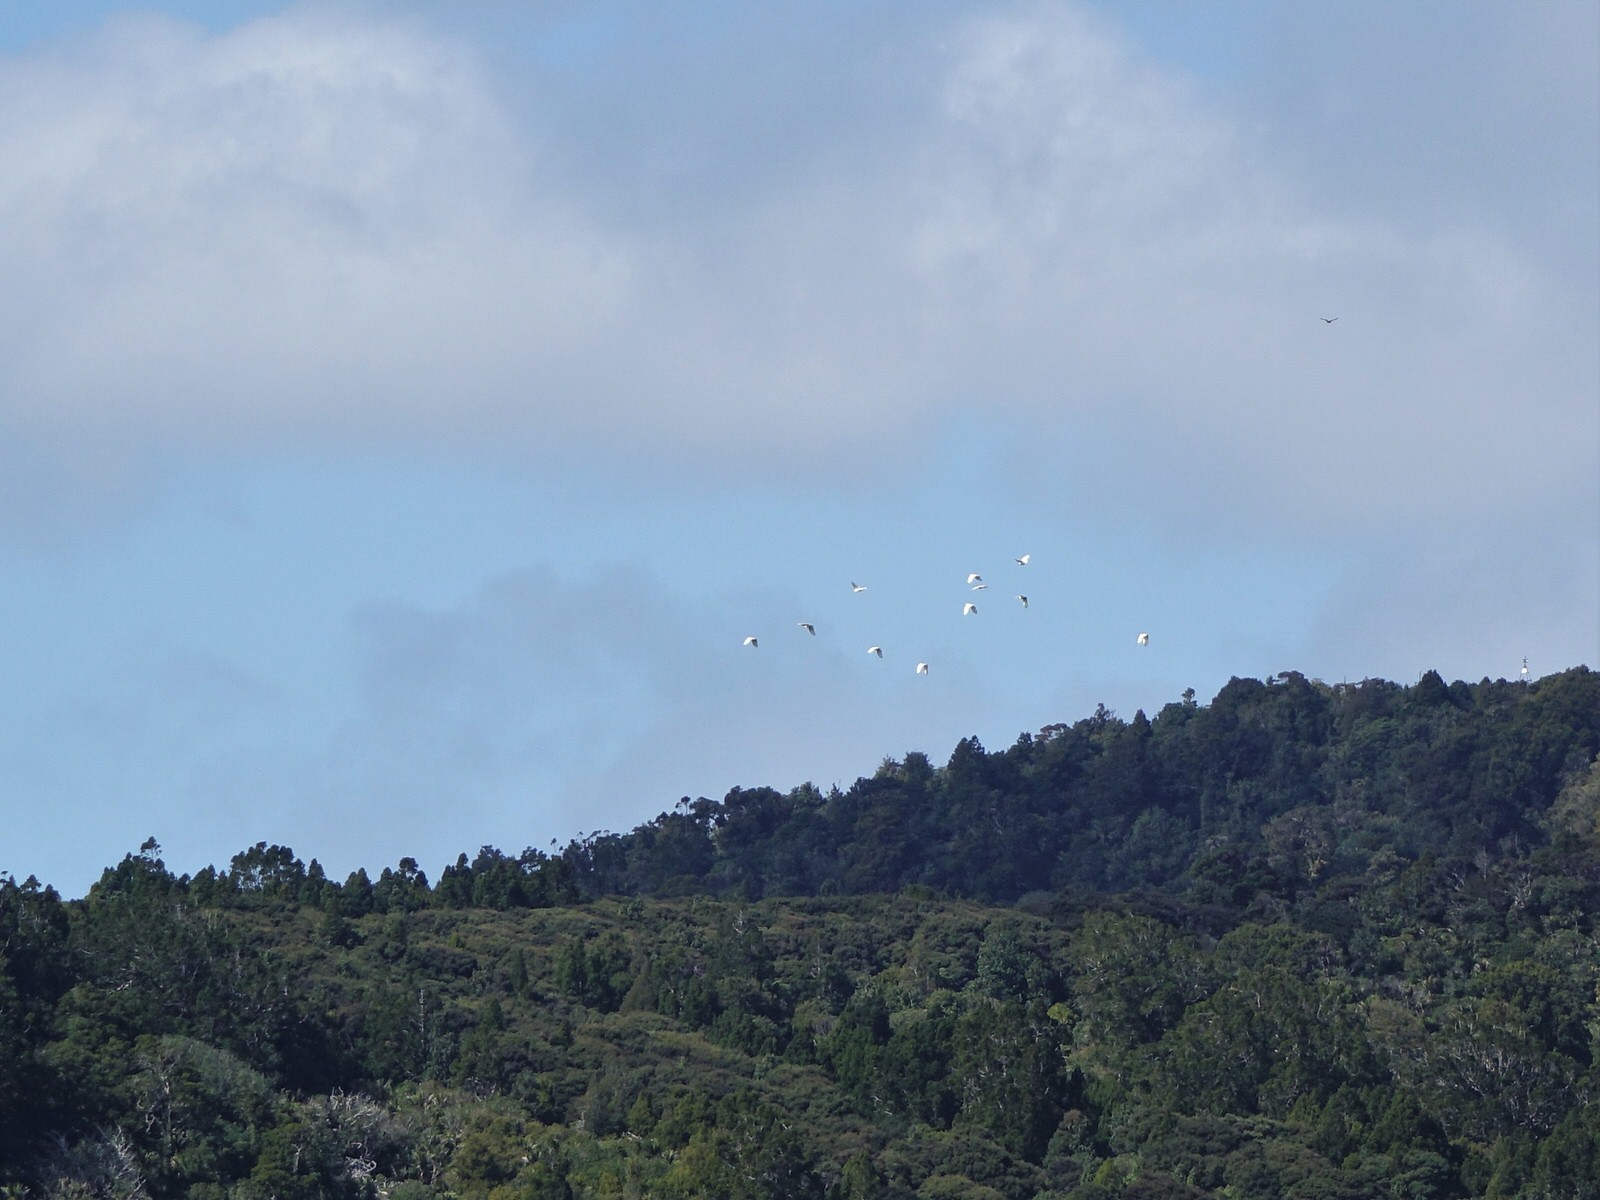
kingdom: Animalia
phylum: Chordata
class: Aves
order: Psittaciformes
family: Psittacidae
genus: Cacatua
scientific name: Cacatua galerita
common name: Sulphur-crested cockatoo
